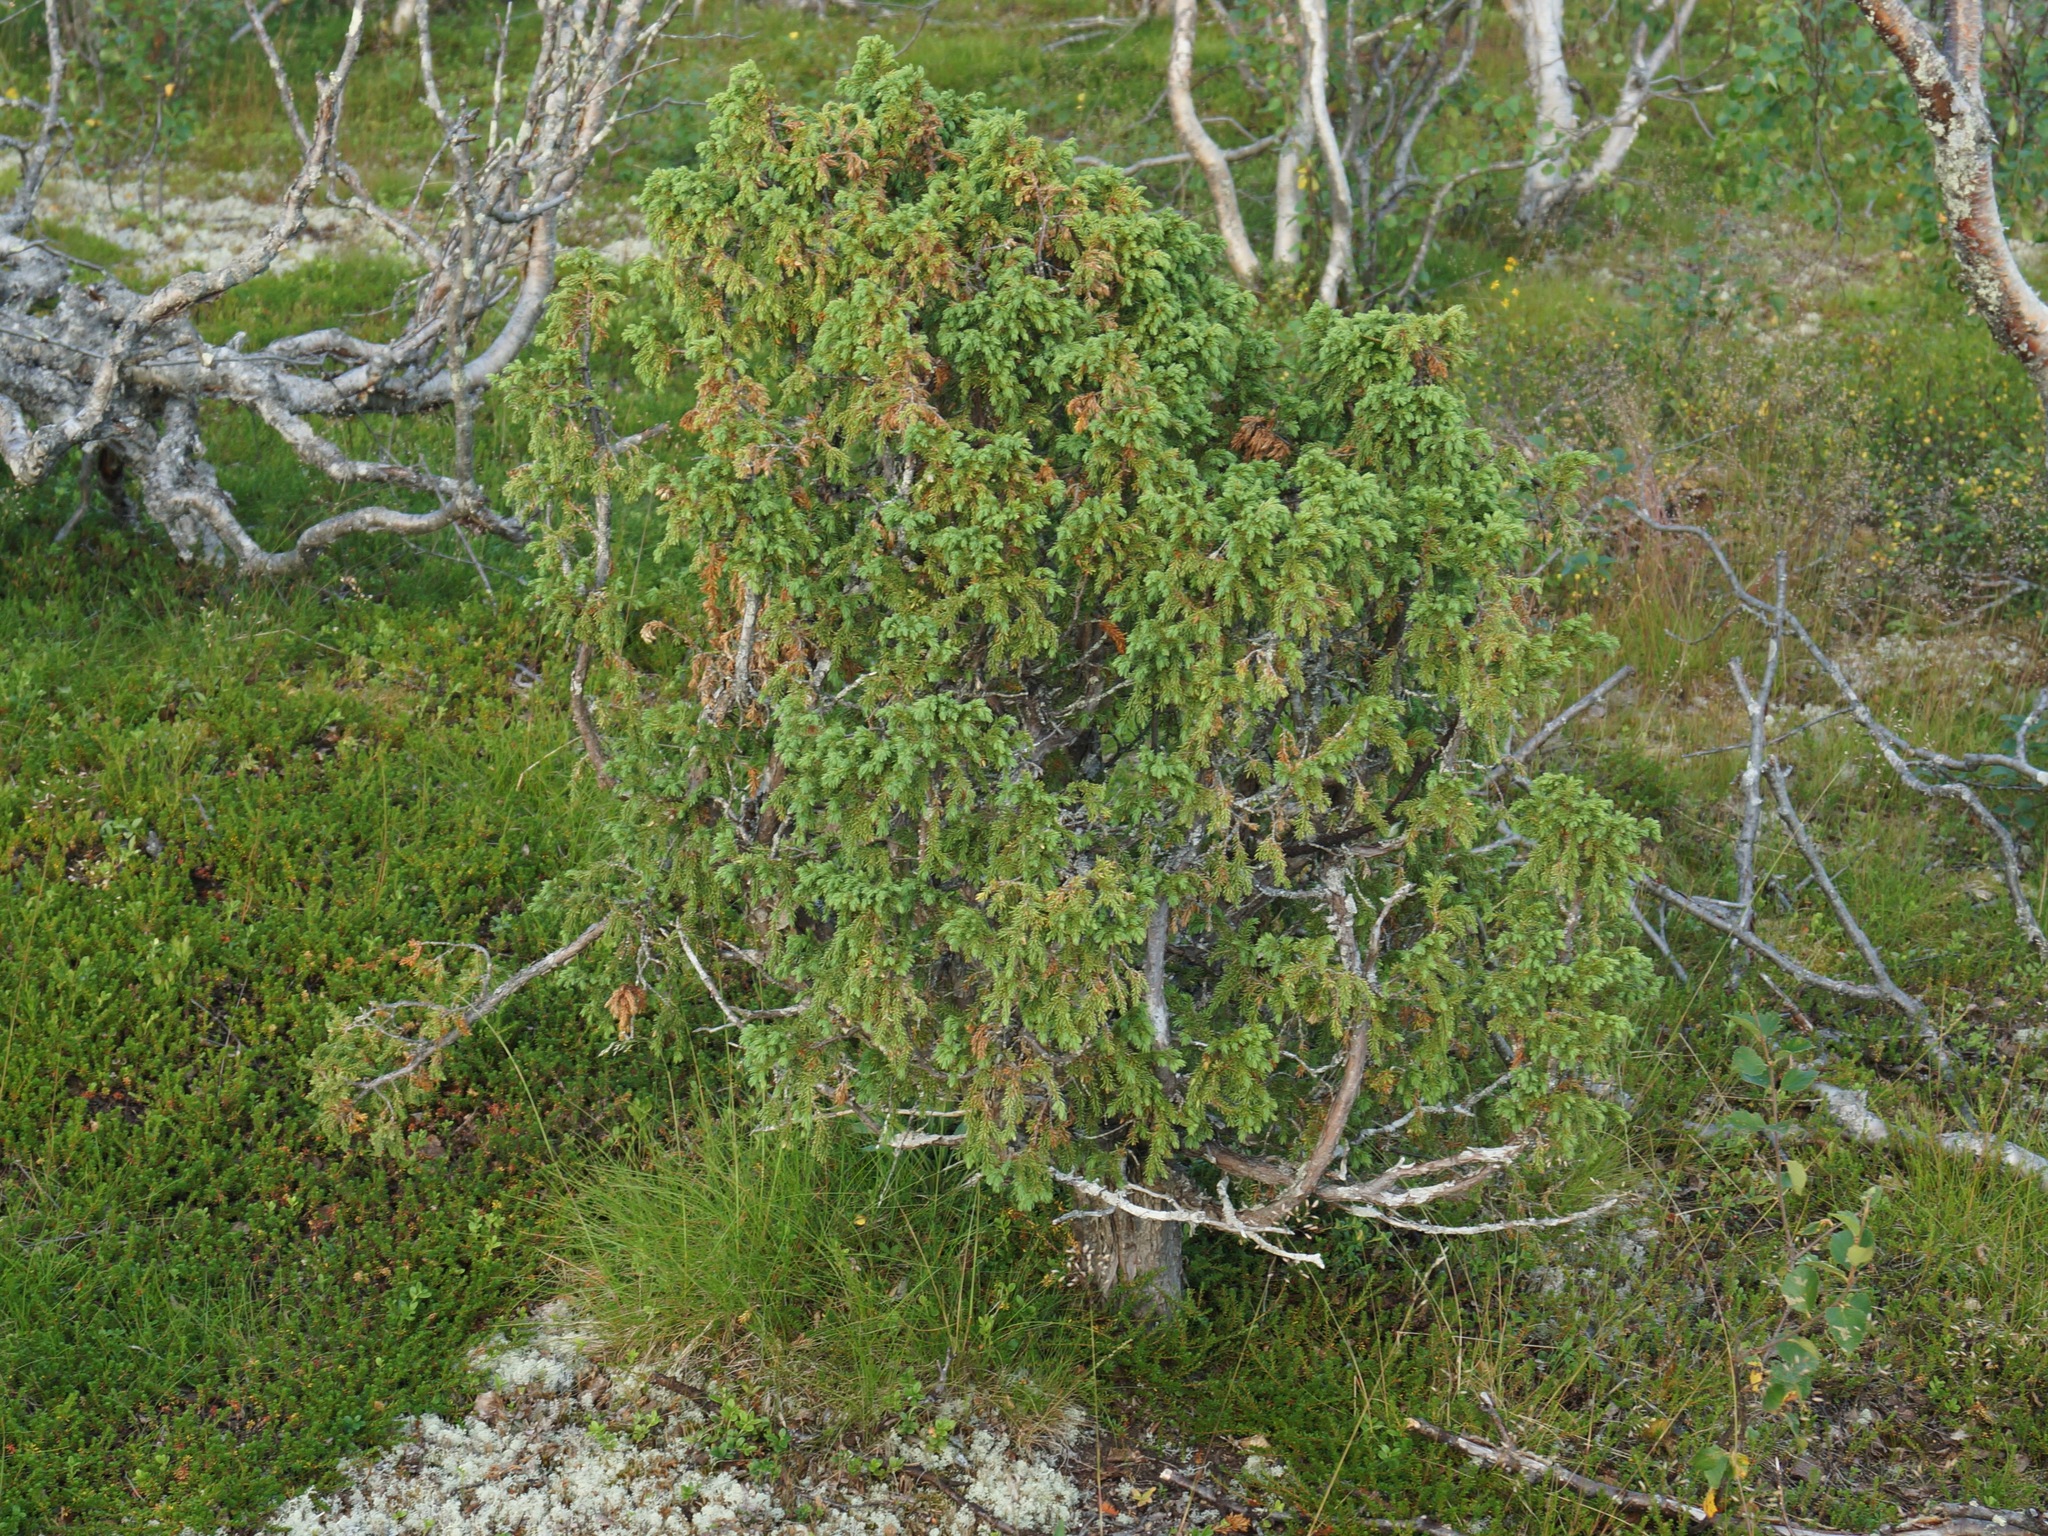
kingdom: Plantae
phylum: Tracheophyta
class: Pinopsida
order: Pinales
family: Cupressaceae
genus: Juniperus
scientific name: Juniperus communis
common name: Common juniper
